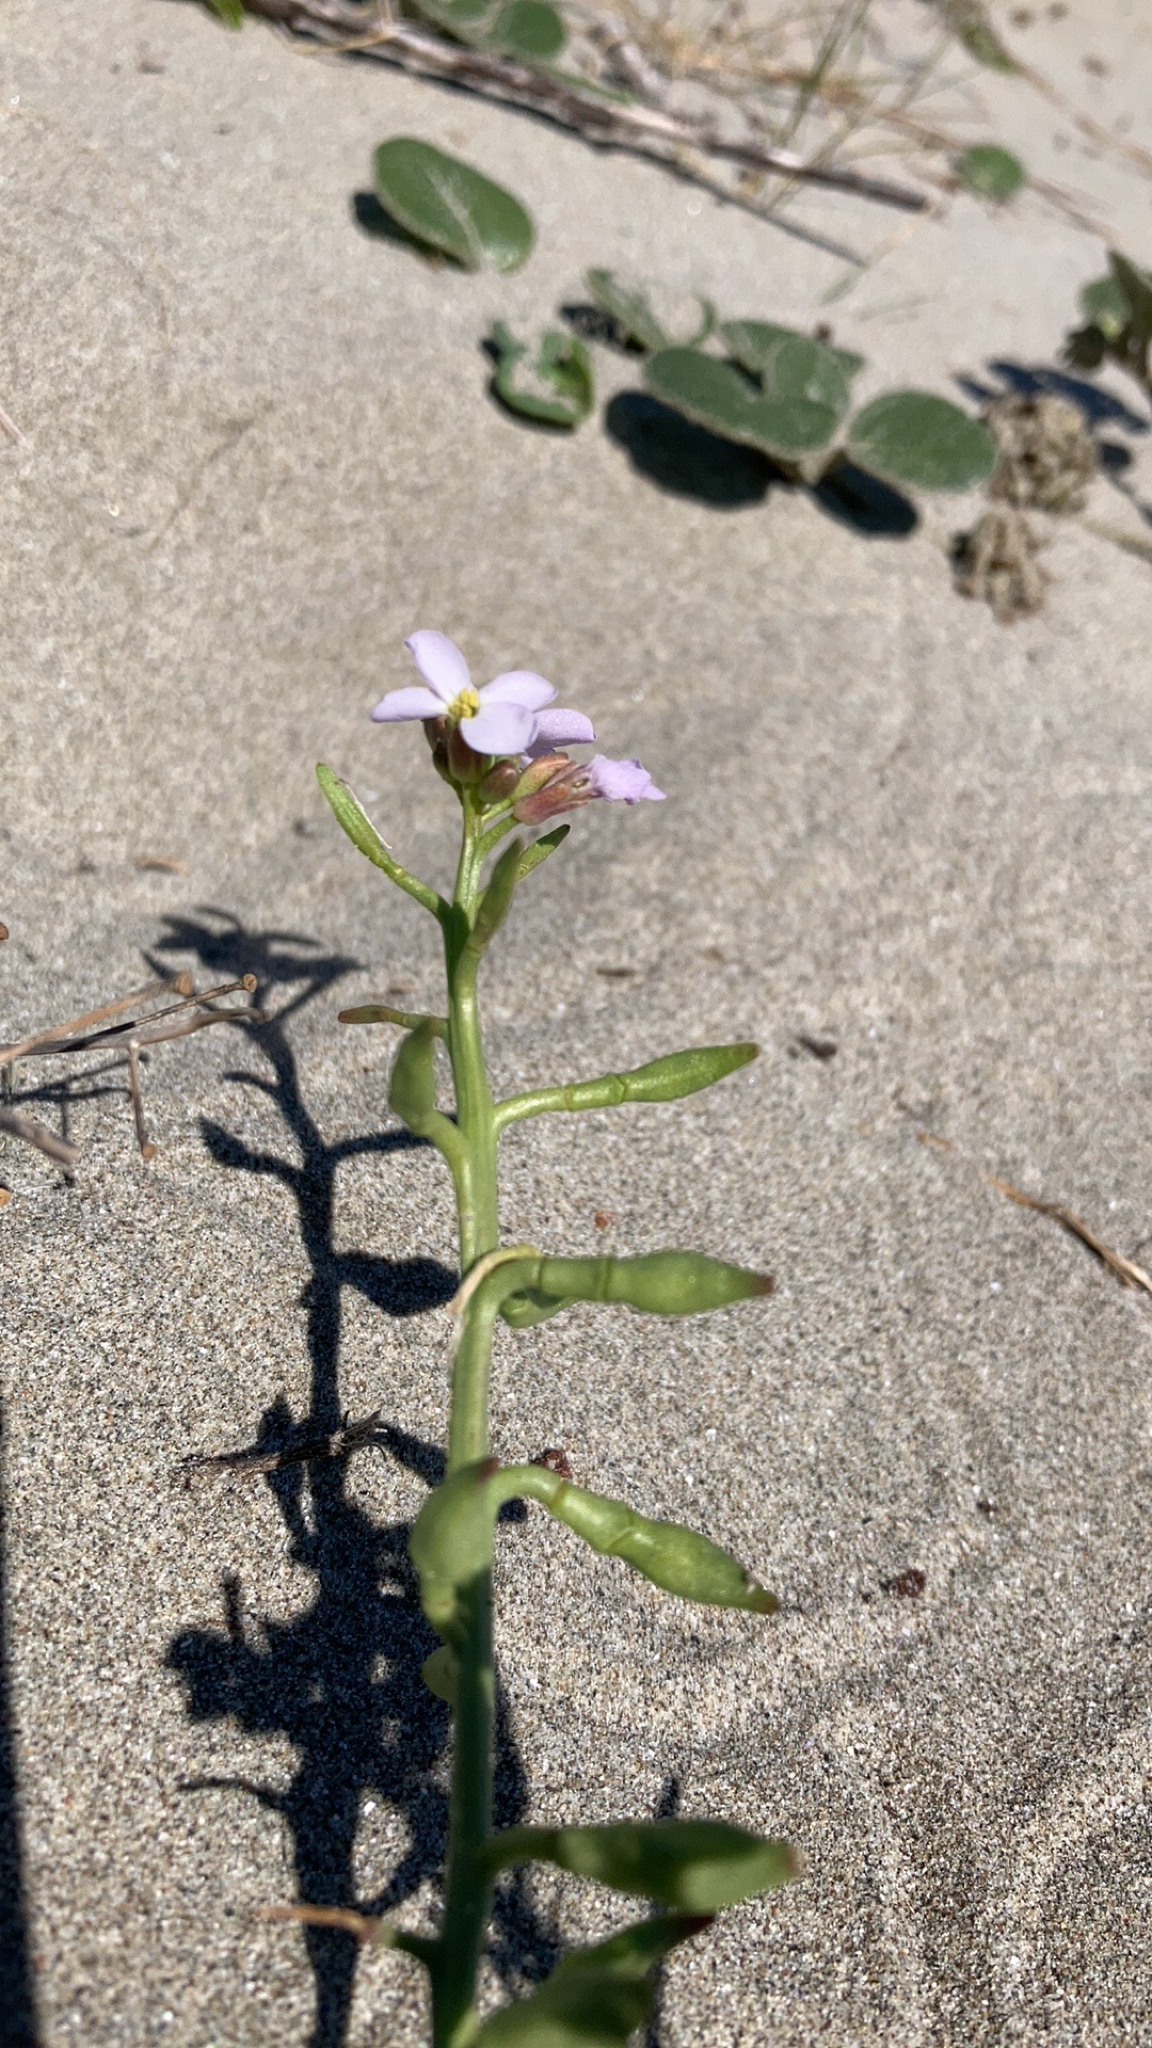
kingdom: Plantae
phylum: Tracheophyta
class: Magnoliopsida
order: Brassicales
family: Brassicaceae
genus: Cakile
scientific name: Cakile maritima
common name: Sea rocket
